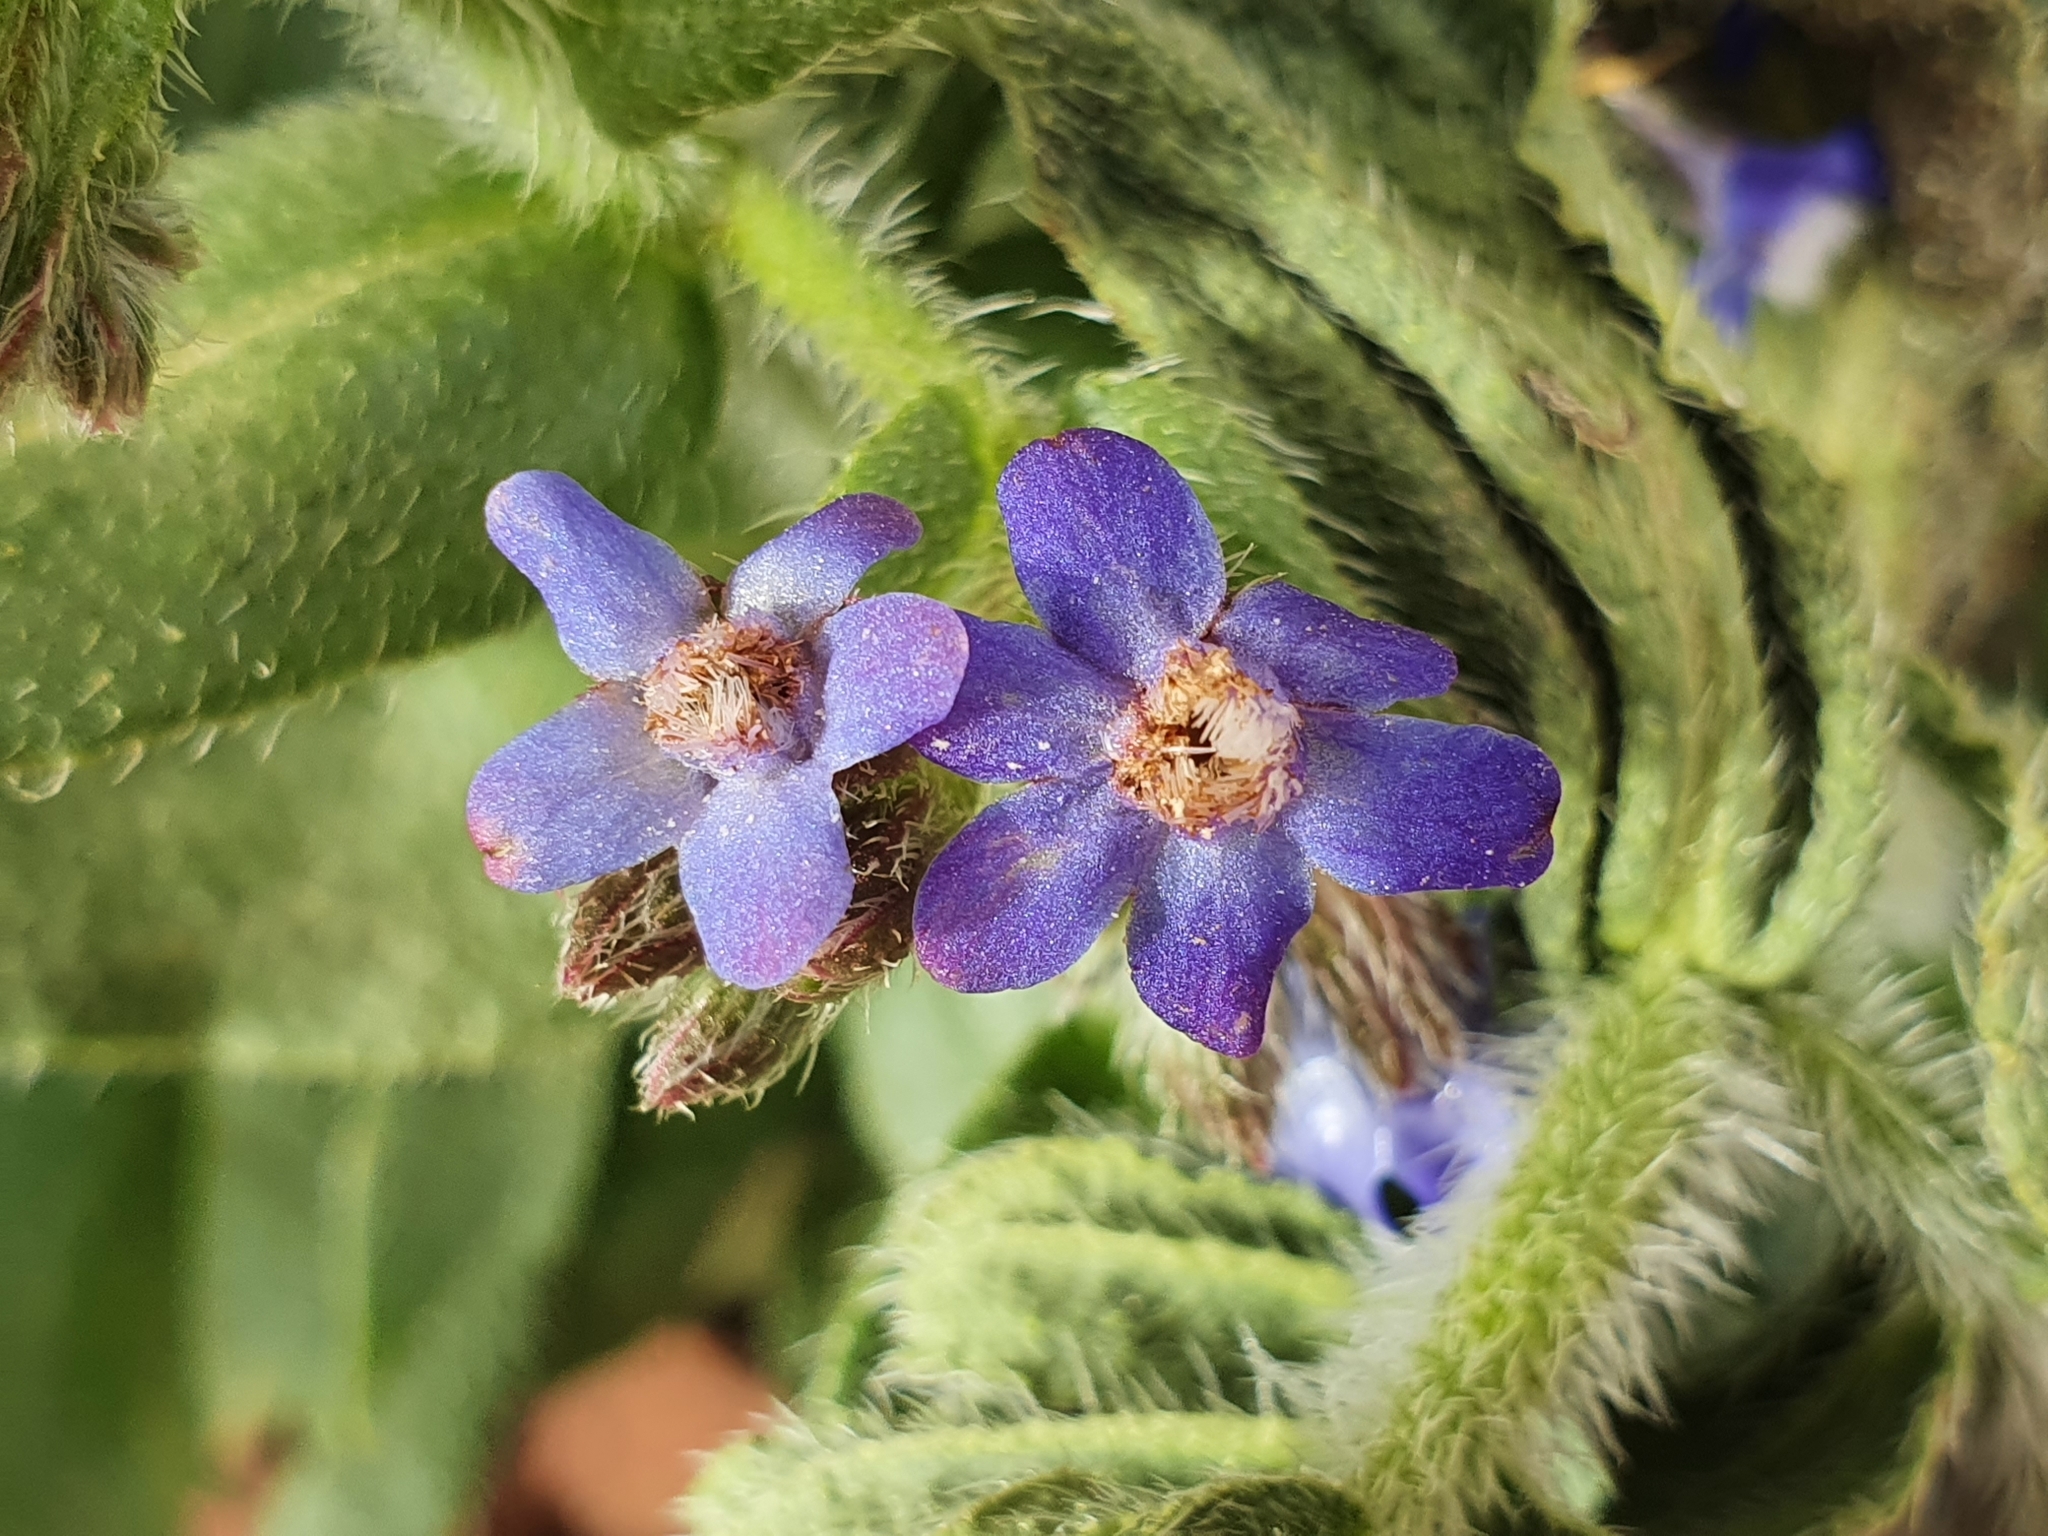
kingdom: Plantae
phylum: Tracheophyta
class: Magnoliopsida
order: Boraginales
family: Boraginaceae
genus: Anchusa
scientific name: Anchusa azurea
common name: Garden anchusa
